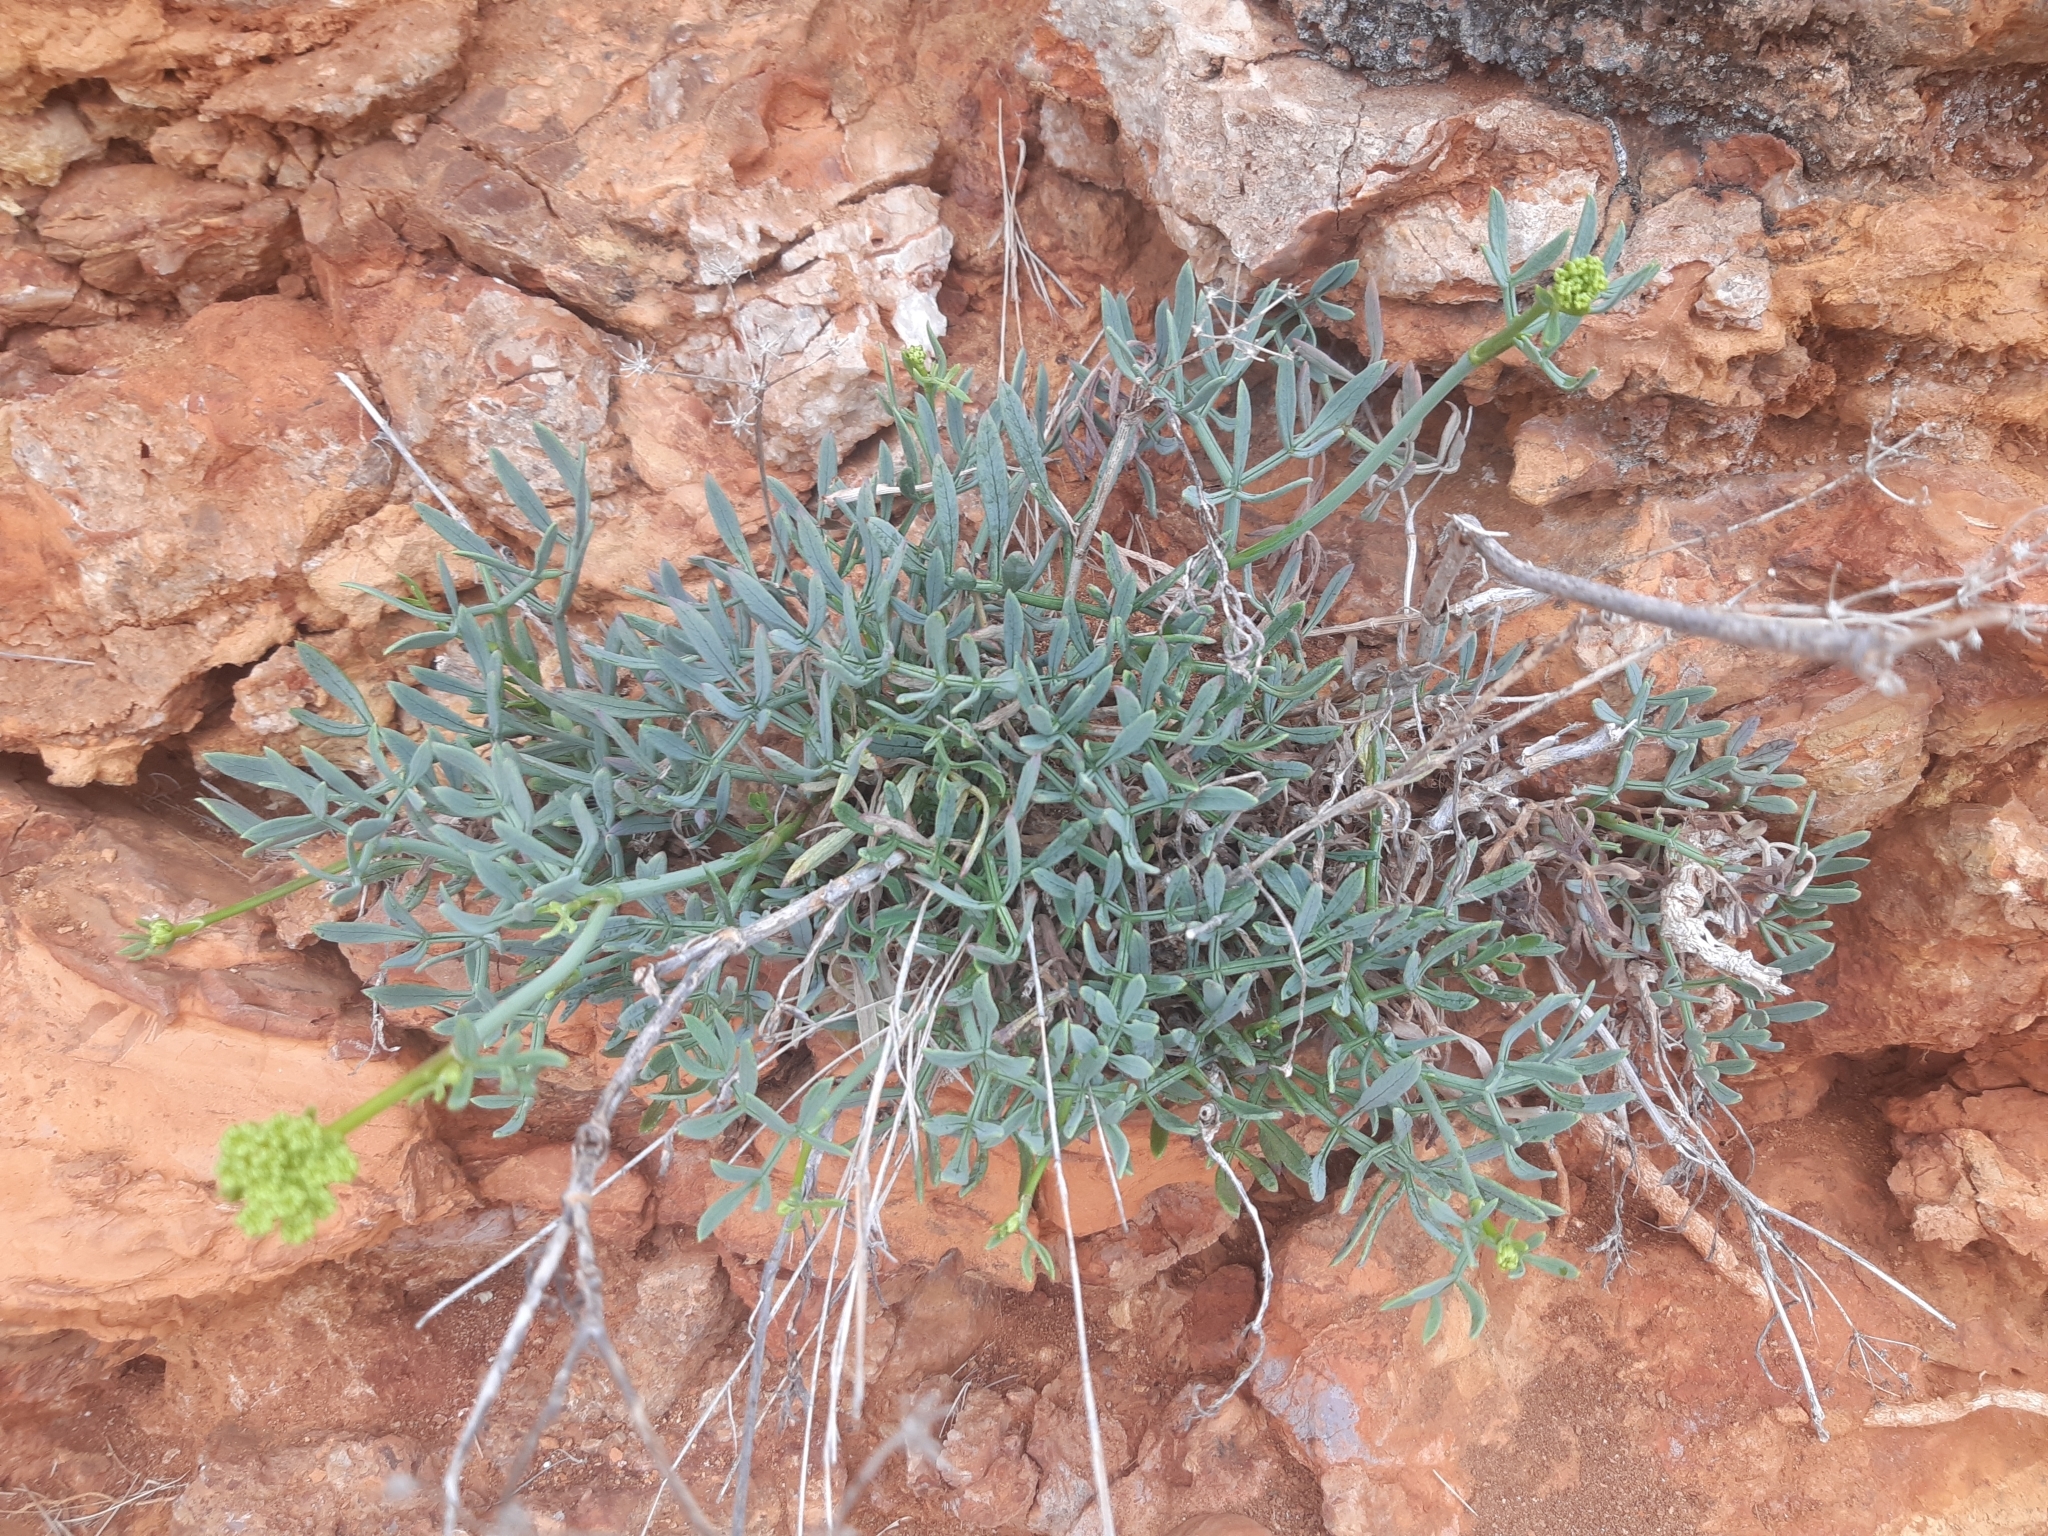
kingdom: Plantae
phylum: Tracheophyta
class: Magnoliopsida
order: Apiales
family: Apiaceae
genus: Crithmum
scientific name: Crithmum maritimum
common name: Rock samphire
